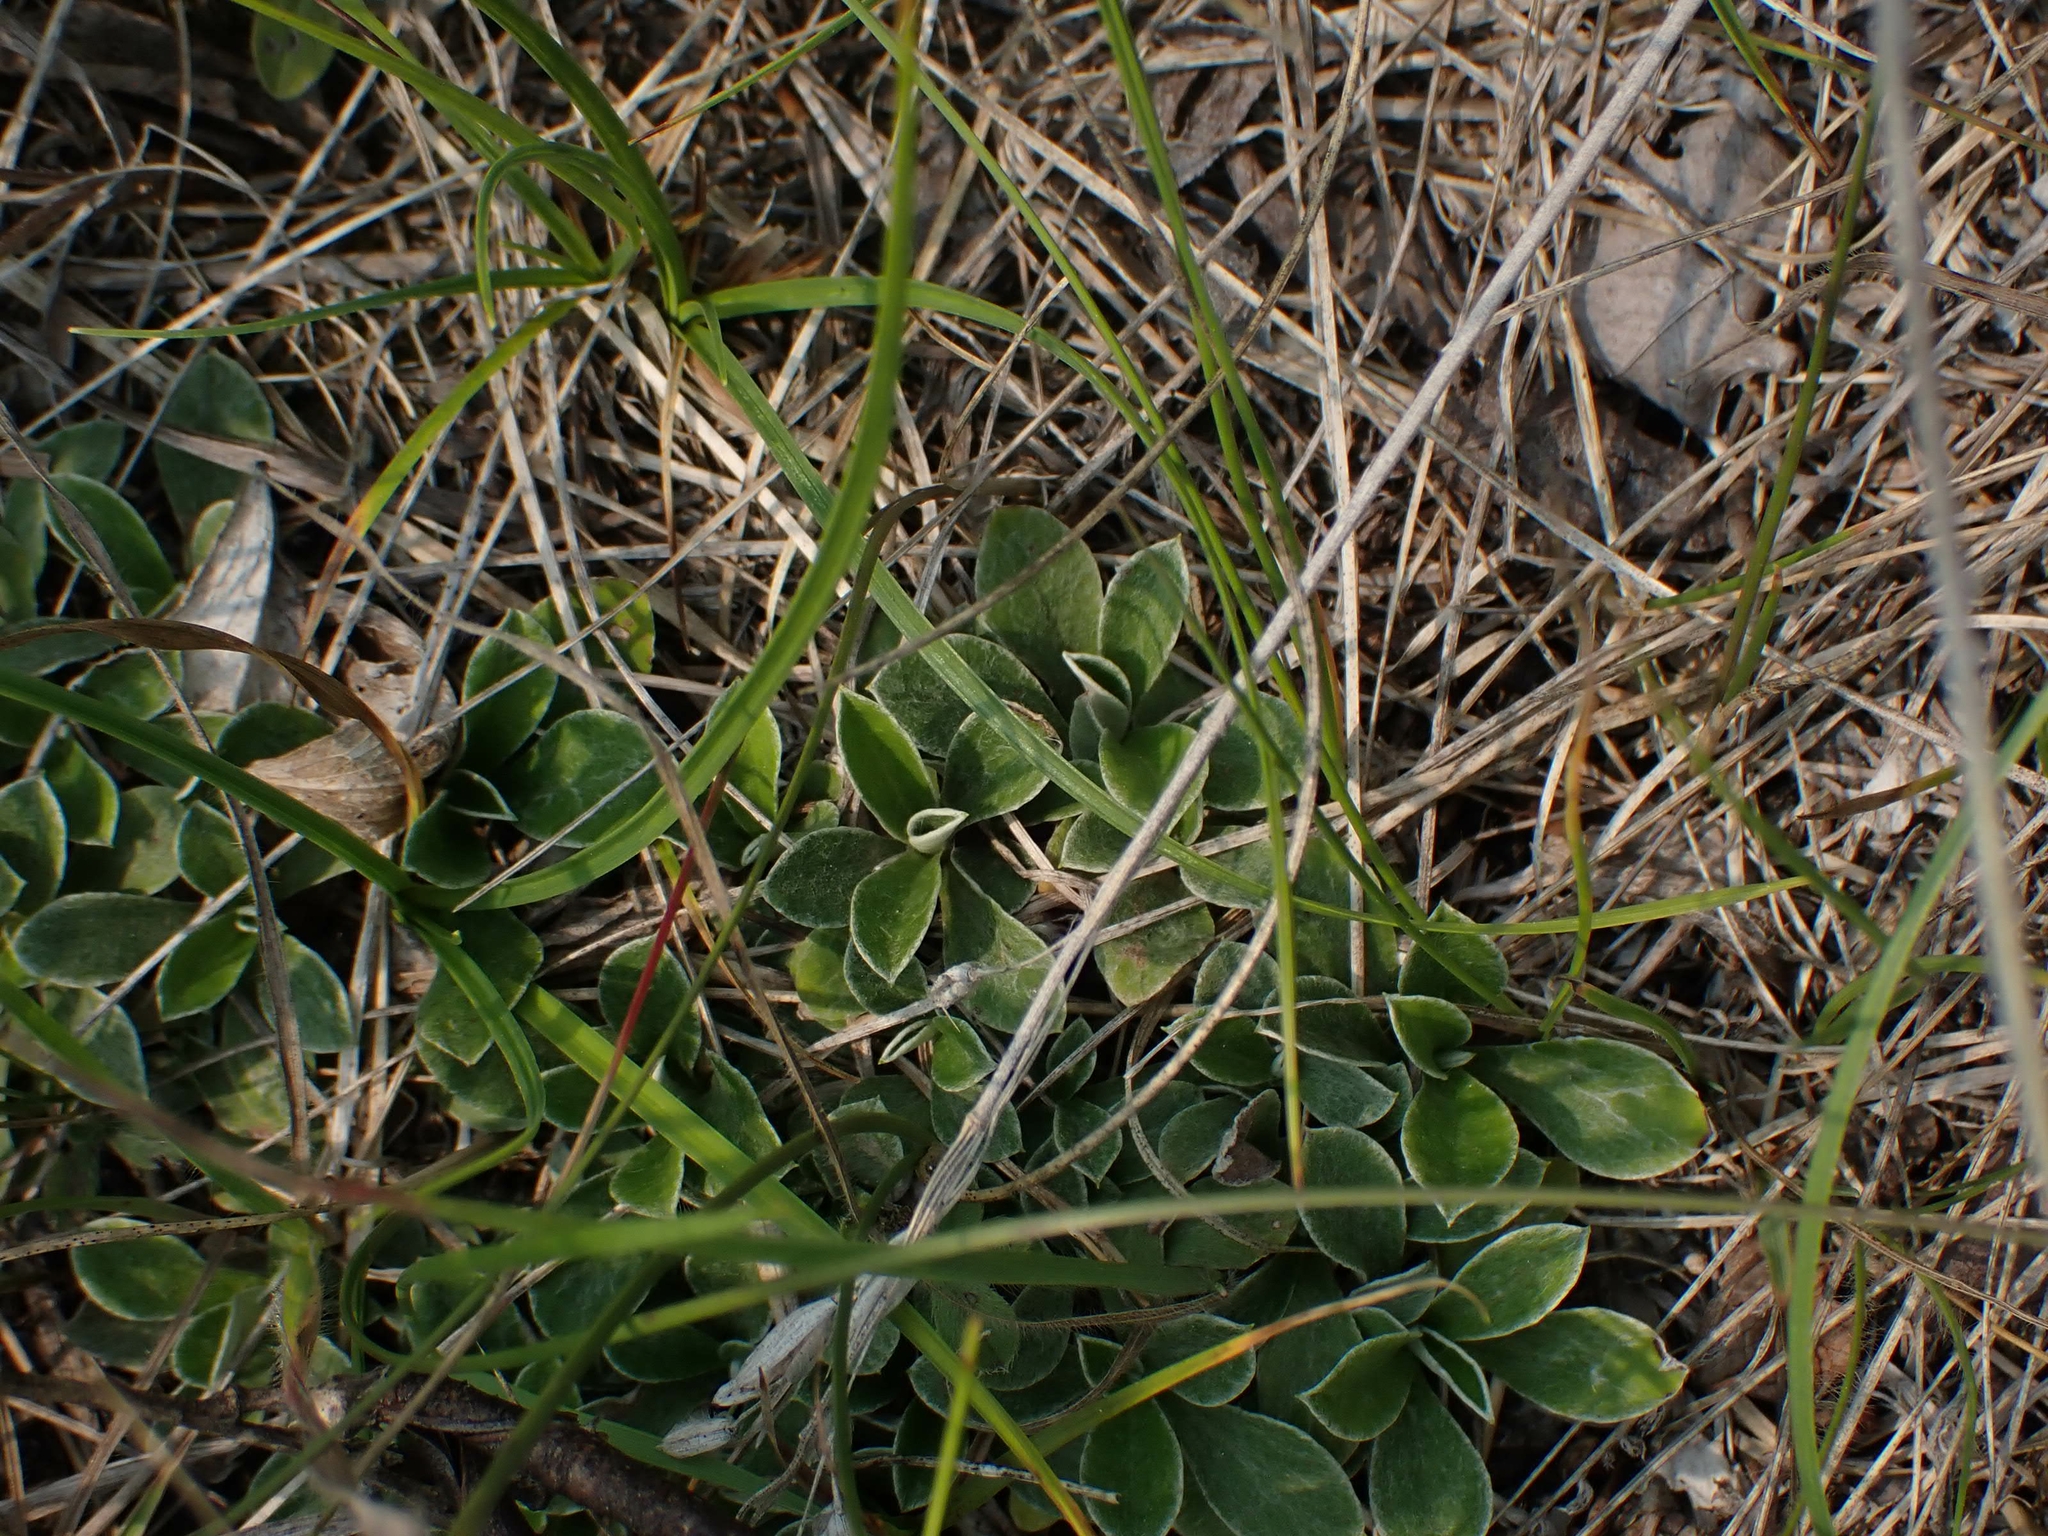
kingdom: Plantae
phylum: Tracheophyta
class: Magnoliopsida
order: Asterales
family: Asteraceae
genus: Antennaria
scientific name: Antennaria neglecta
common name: Field pussytoes
